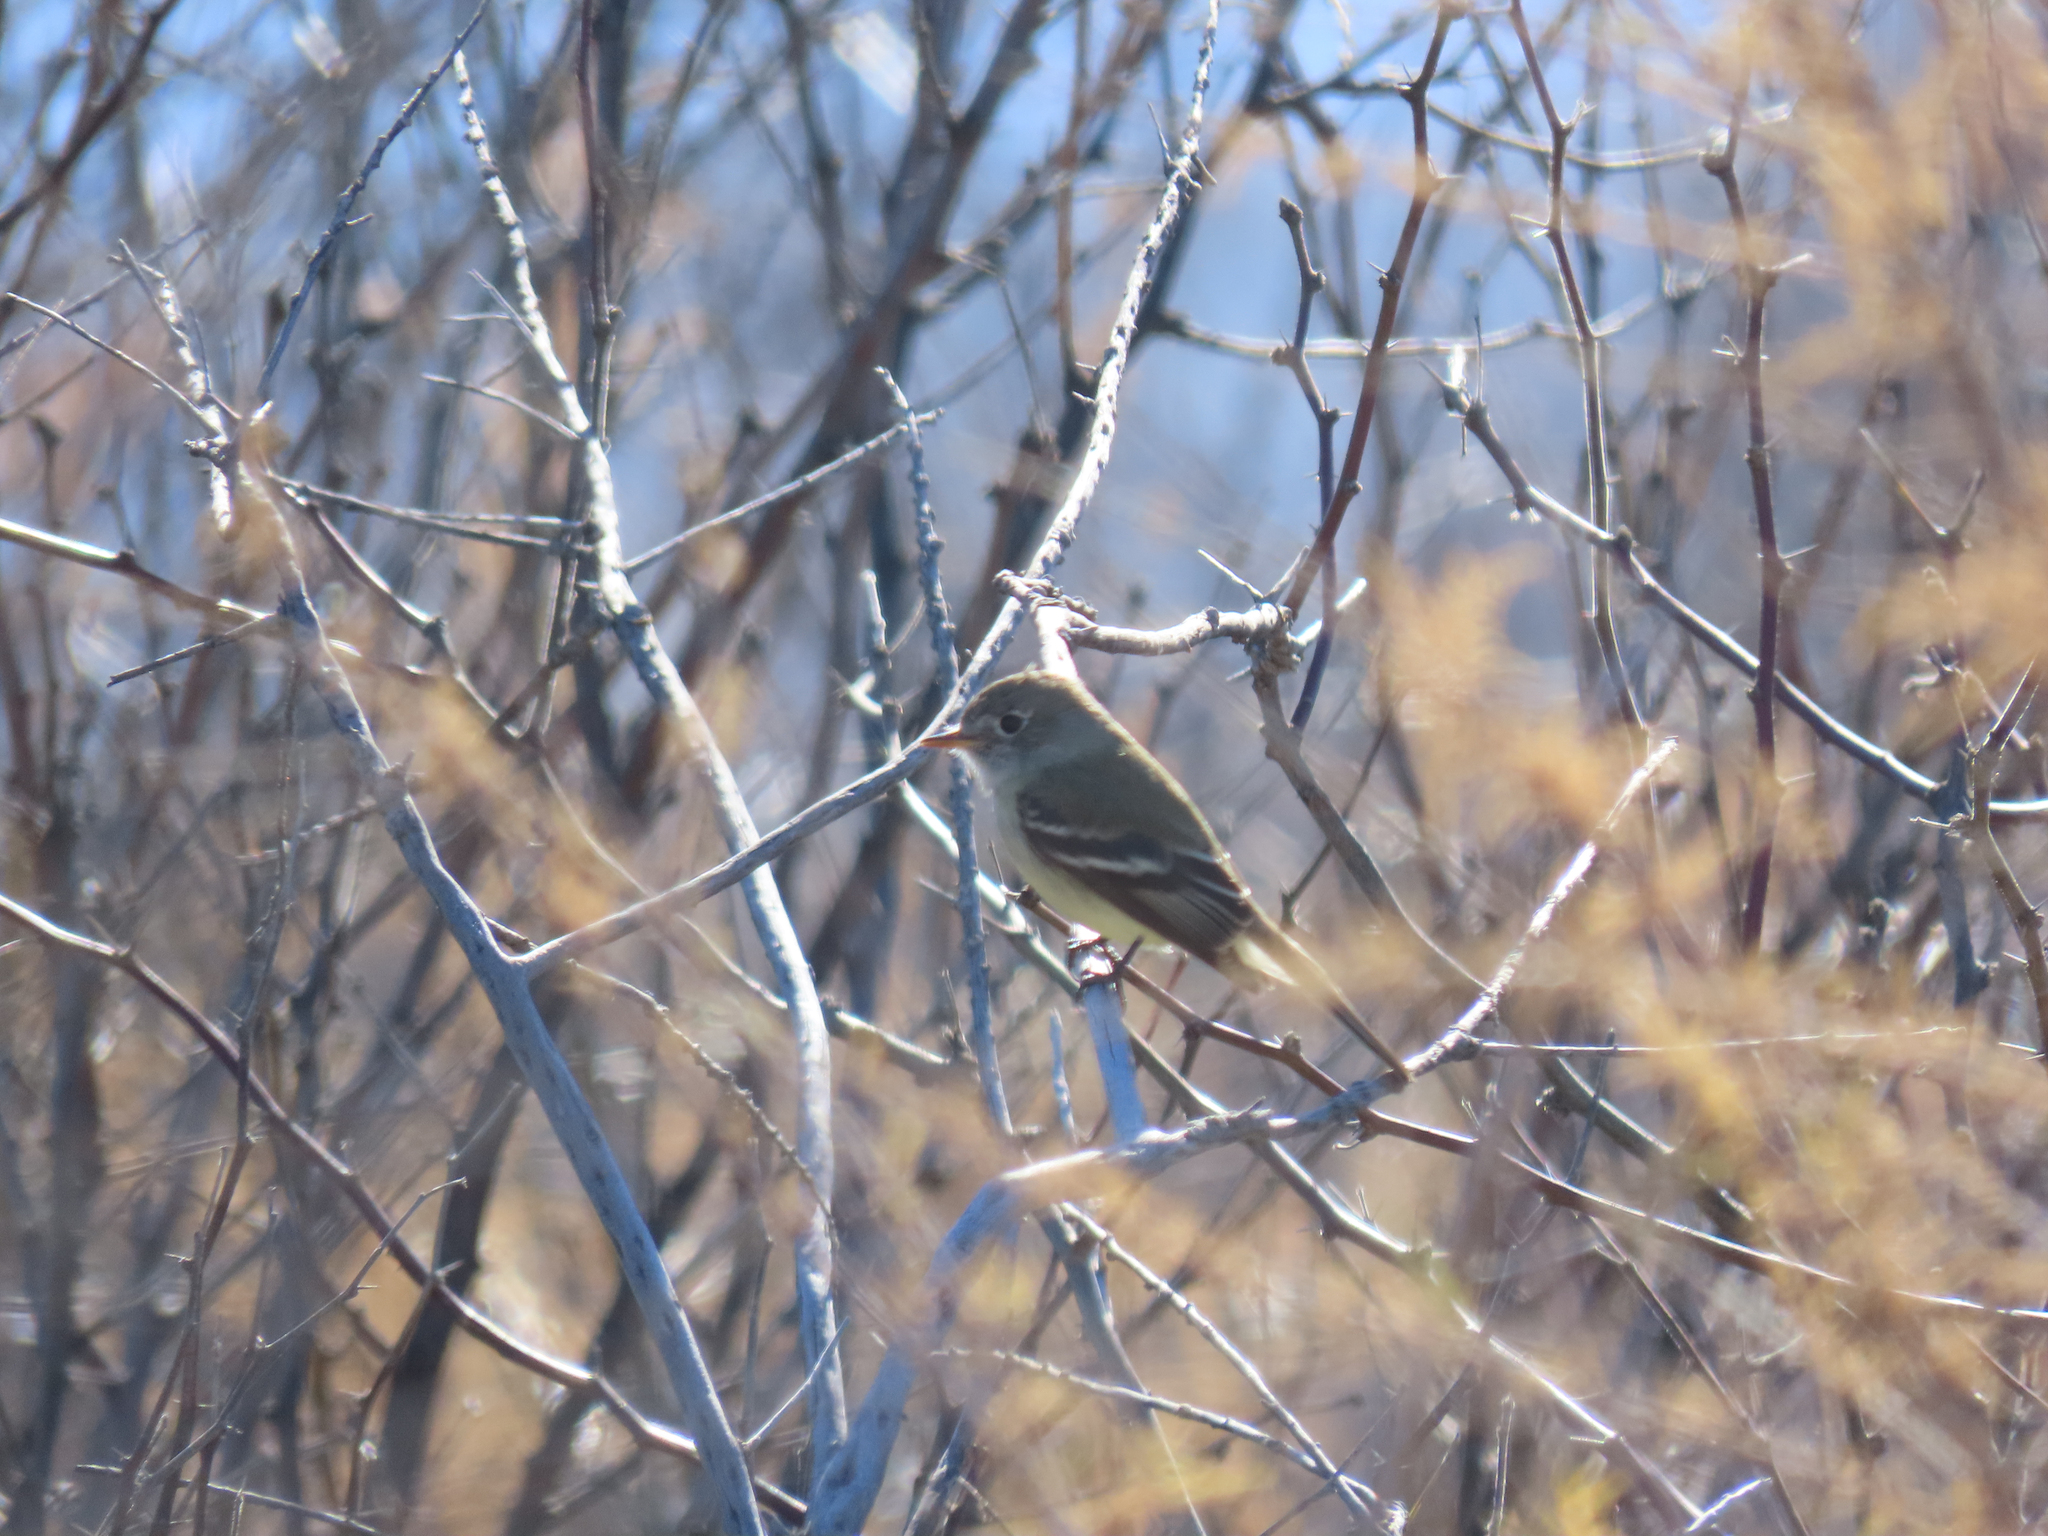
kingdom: Animalia
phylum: Chordata
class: Aves
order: Passeriformes
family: Tyrannidae
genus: Empidonax
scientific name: Empidonax oberholseri
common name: Dusky flycatcher
